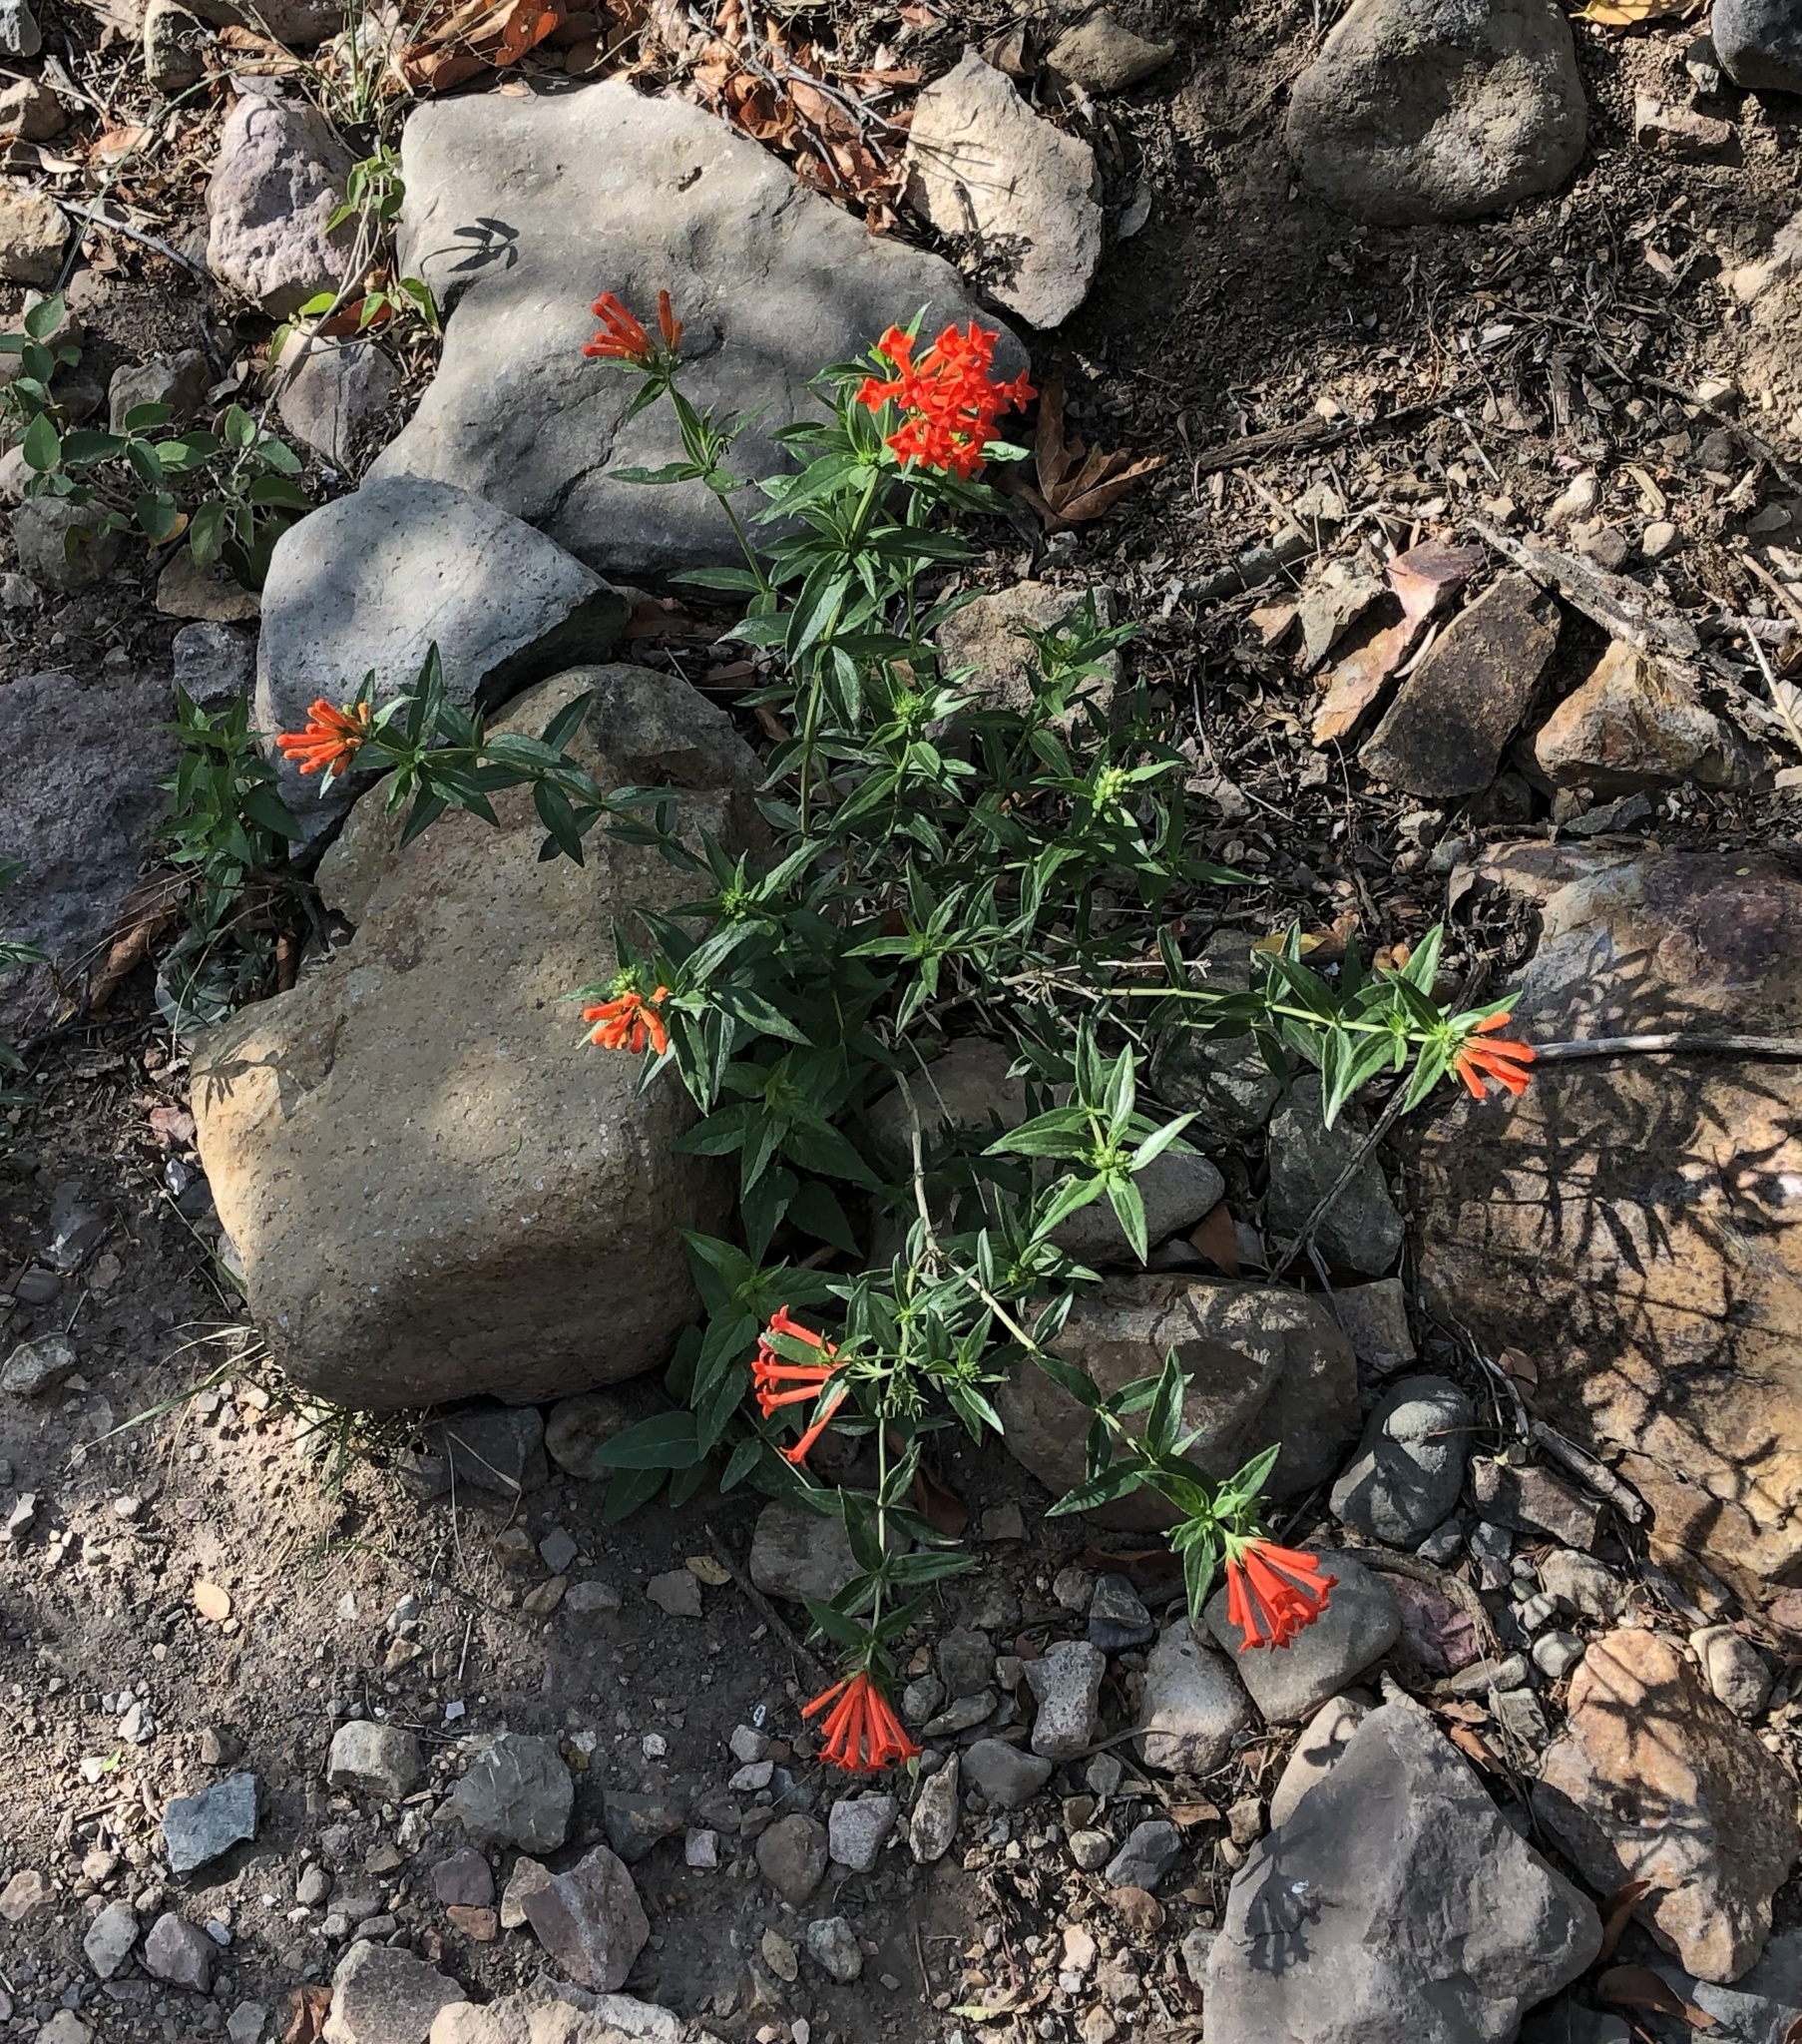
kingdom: Plantae
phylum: Tracheophyta
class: Magnoliopsida
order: Gentianales
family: Rubiaceae
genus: Bouvardia
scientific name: Bouvardia ternifolia
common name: Scarlet bouvardia
